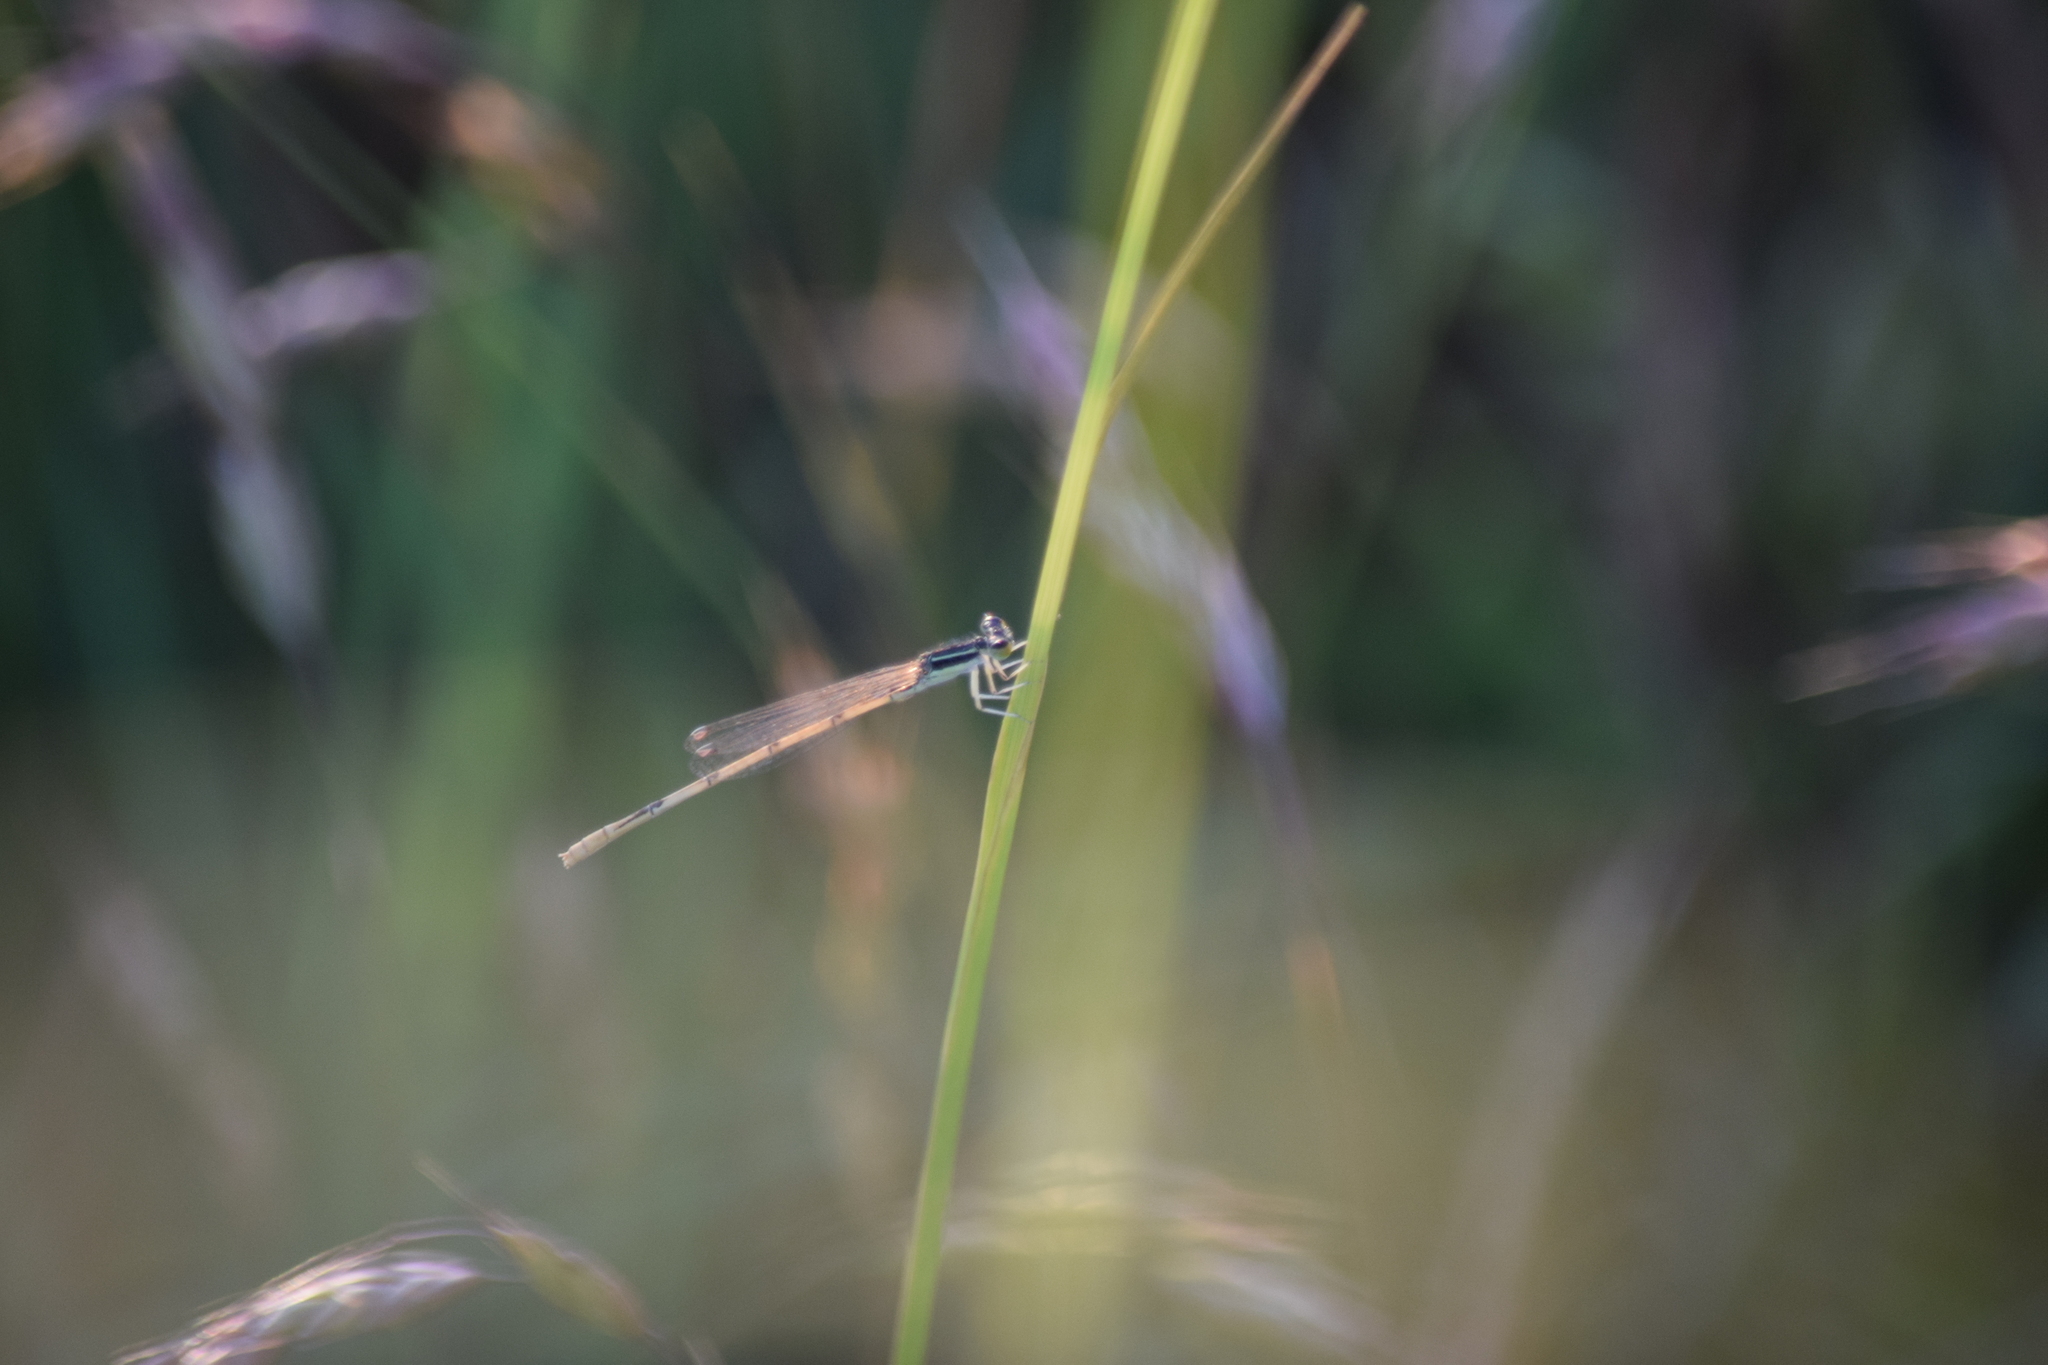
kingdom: Animalia
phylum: Arthropoda
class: Insecta
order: Odonata
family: Coenagrionidae
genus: Ischnura
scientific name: Ischnura hastata
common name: Citrine forktail
